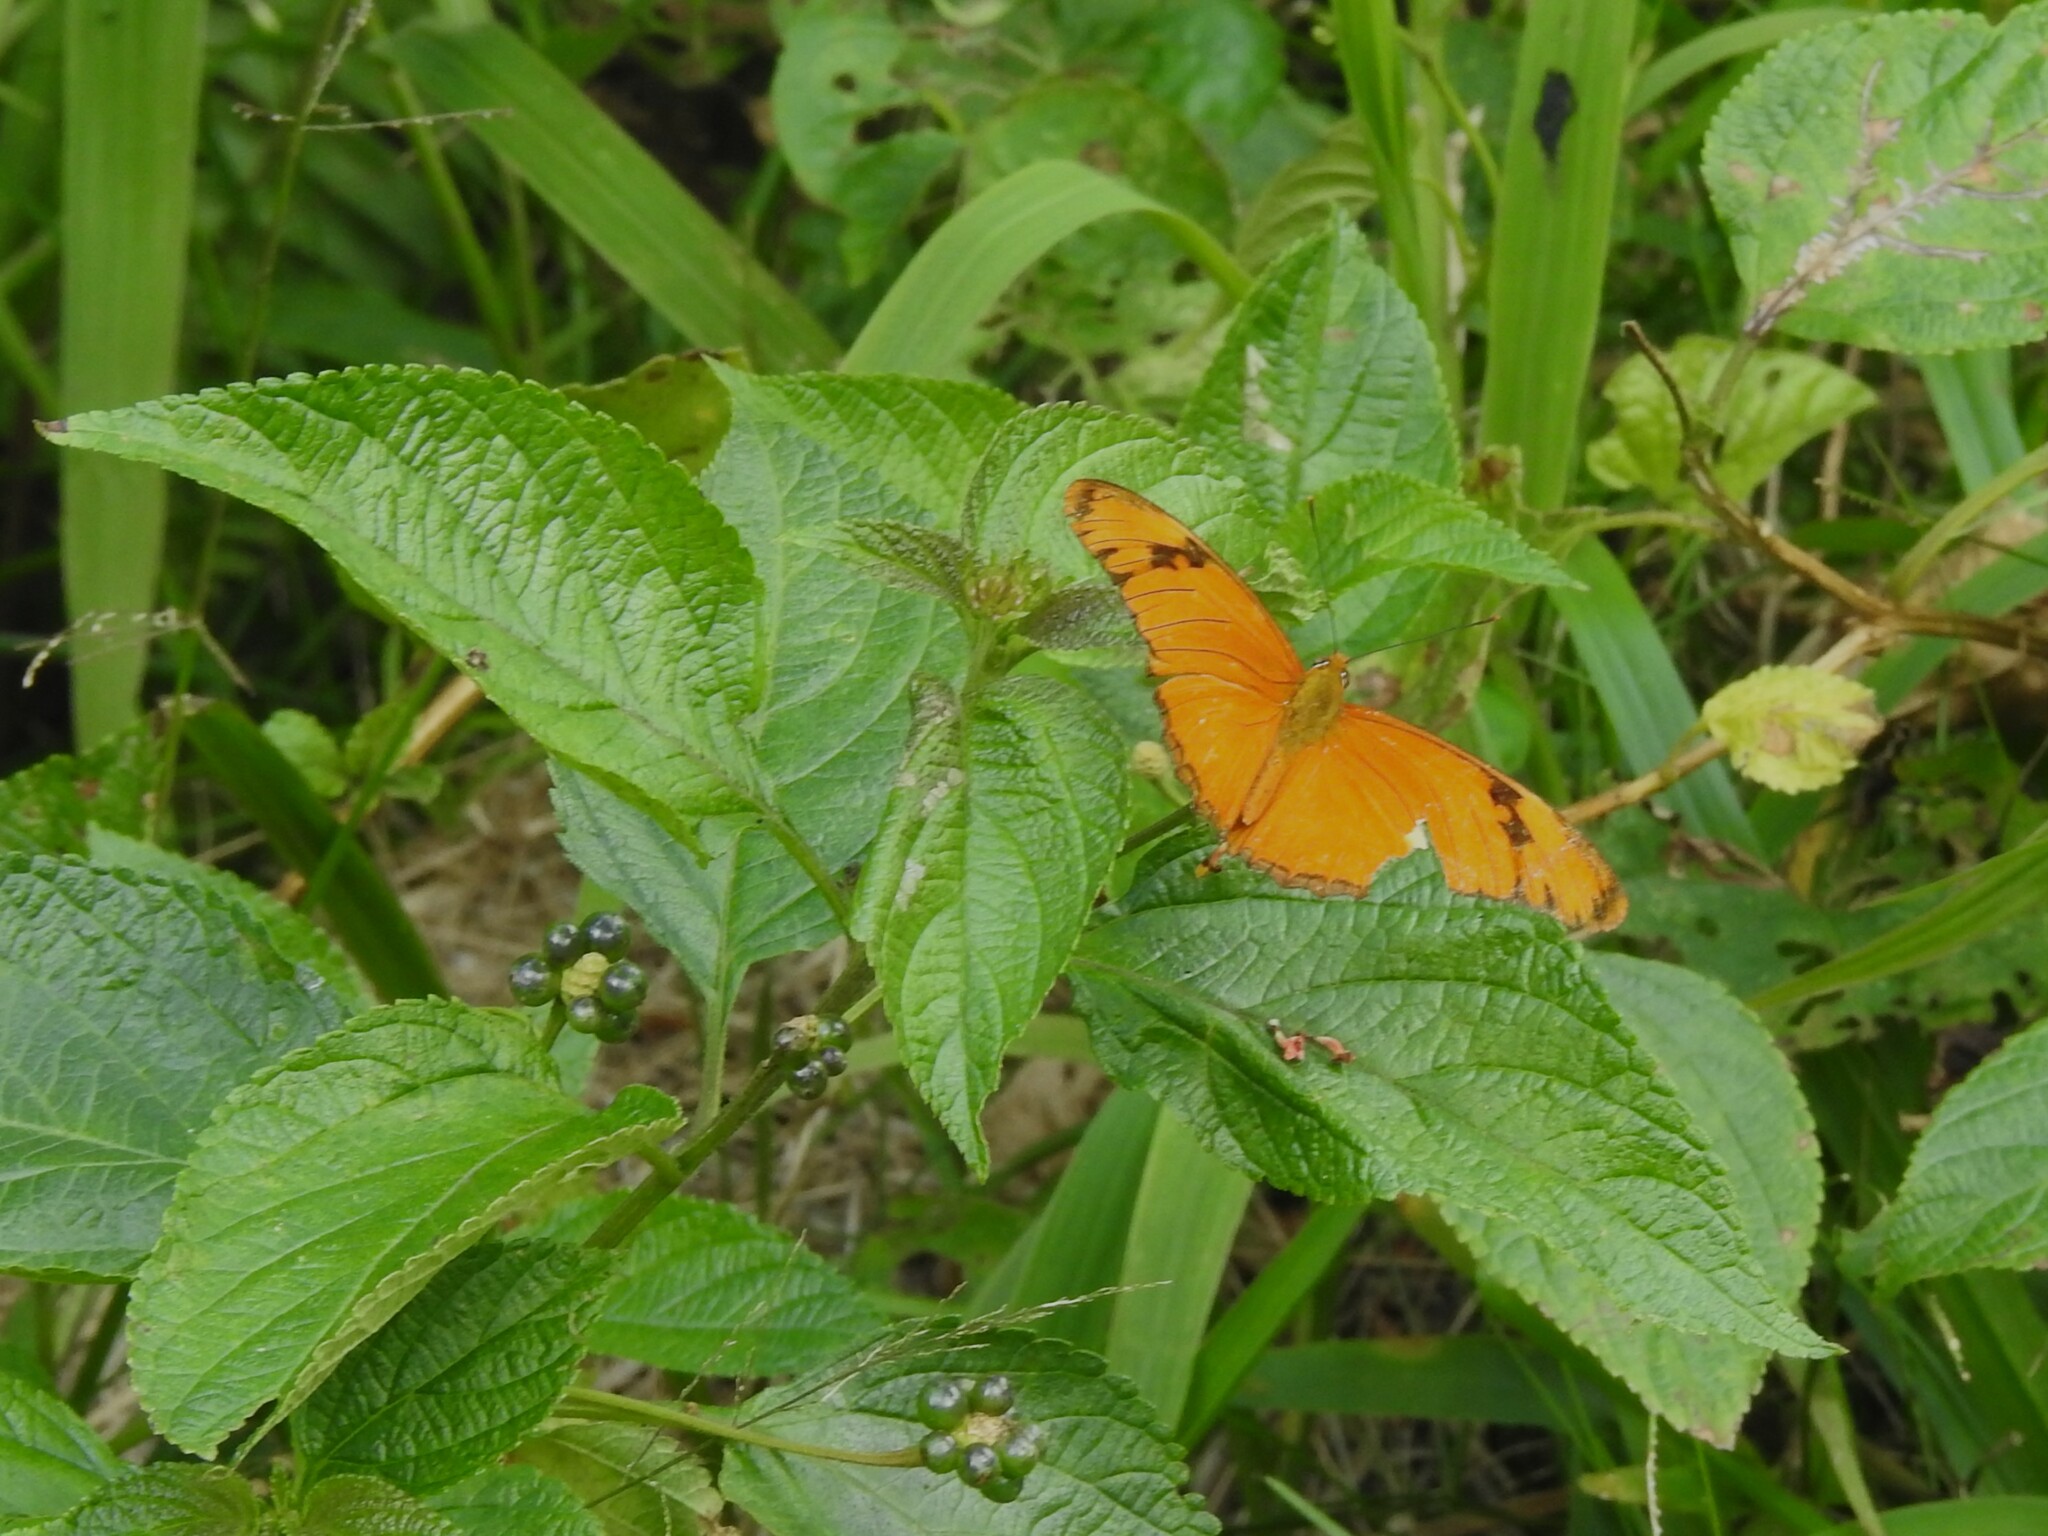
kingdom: Animalia
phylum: Arthropoda
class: Insecta
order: Lepidoptera
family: Nymphalidae
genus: Dryas
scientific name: Dryas iulia
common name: Flambeau
